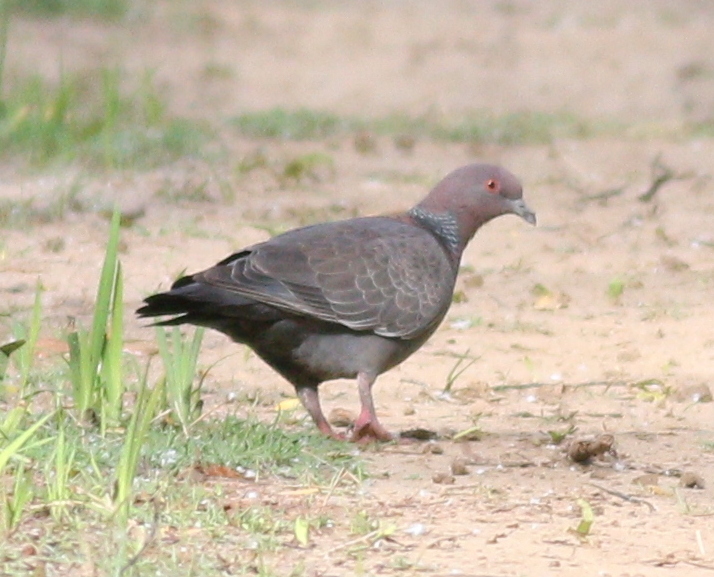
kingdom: Animalia
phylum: Chordata
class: Aves
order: Columbiformes
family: Columbidae
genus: Patagioenas
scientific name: Patagioenas picazuro
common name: Picazuro pigeon
